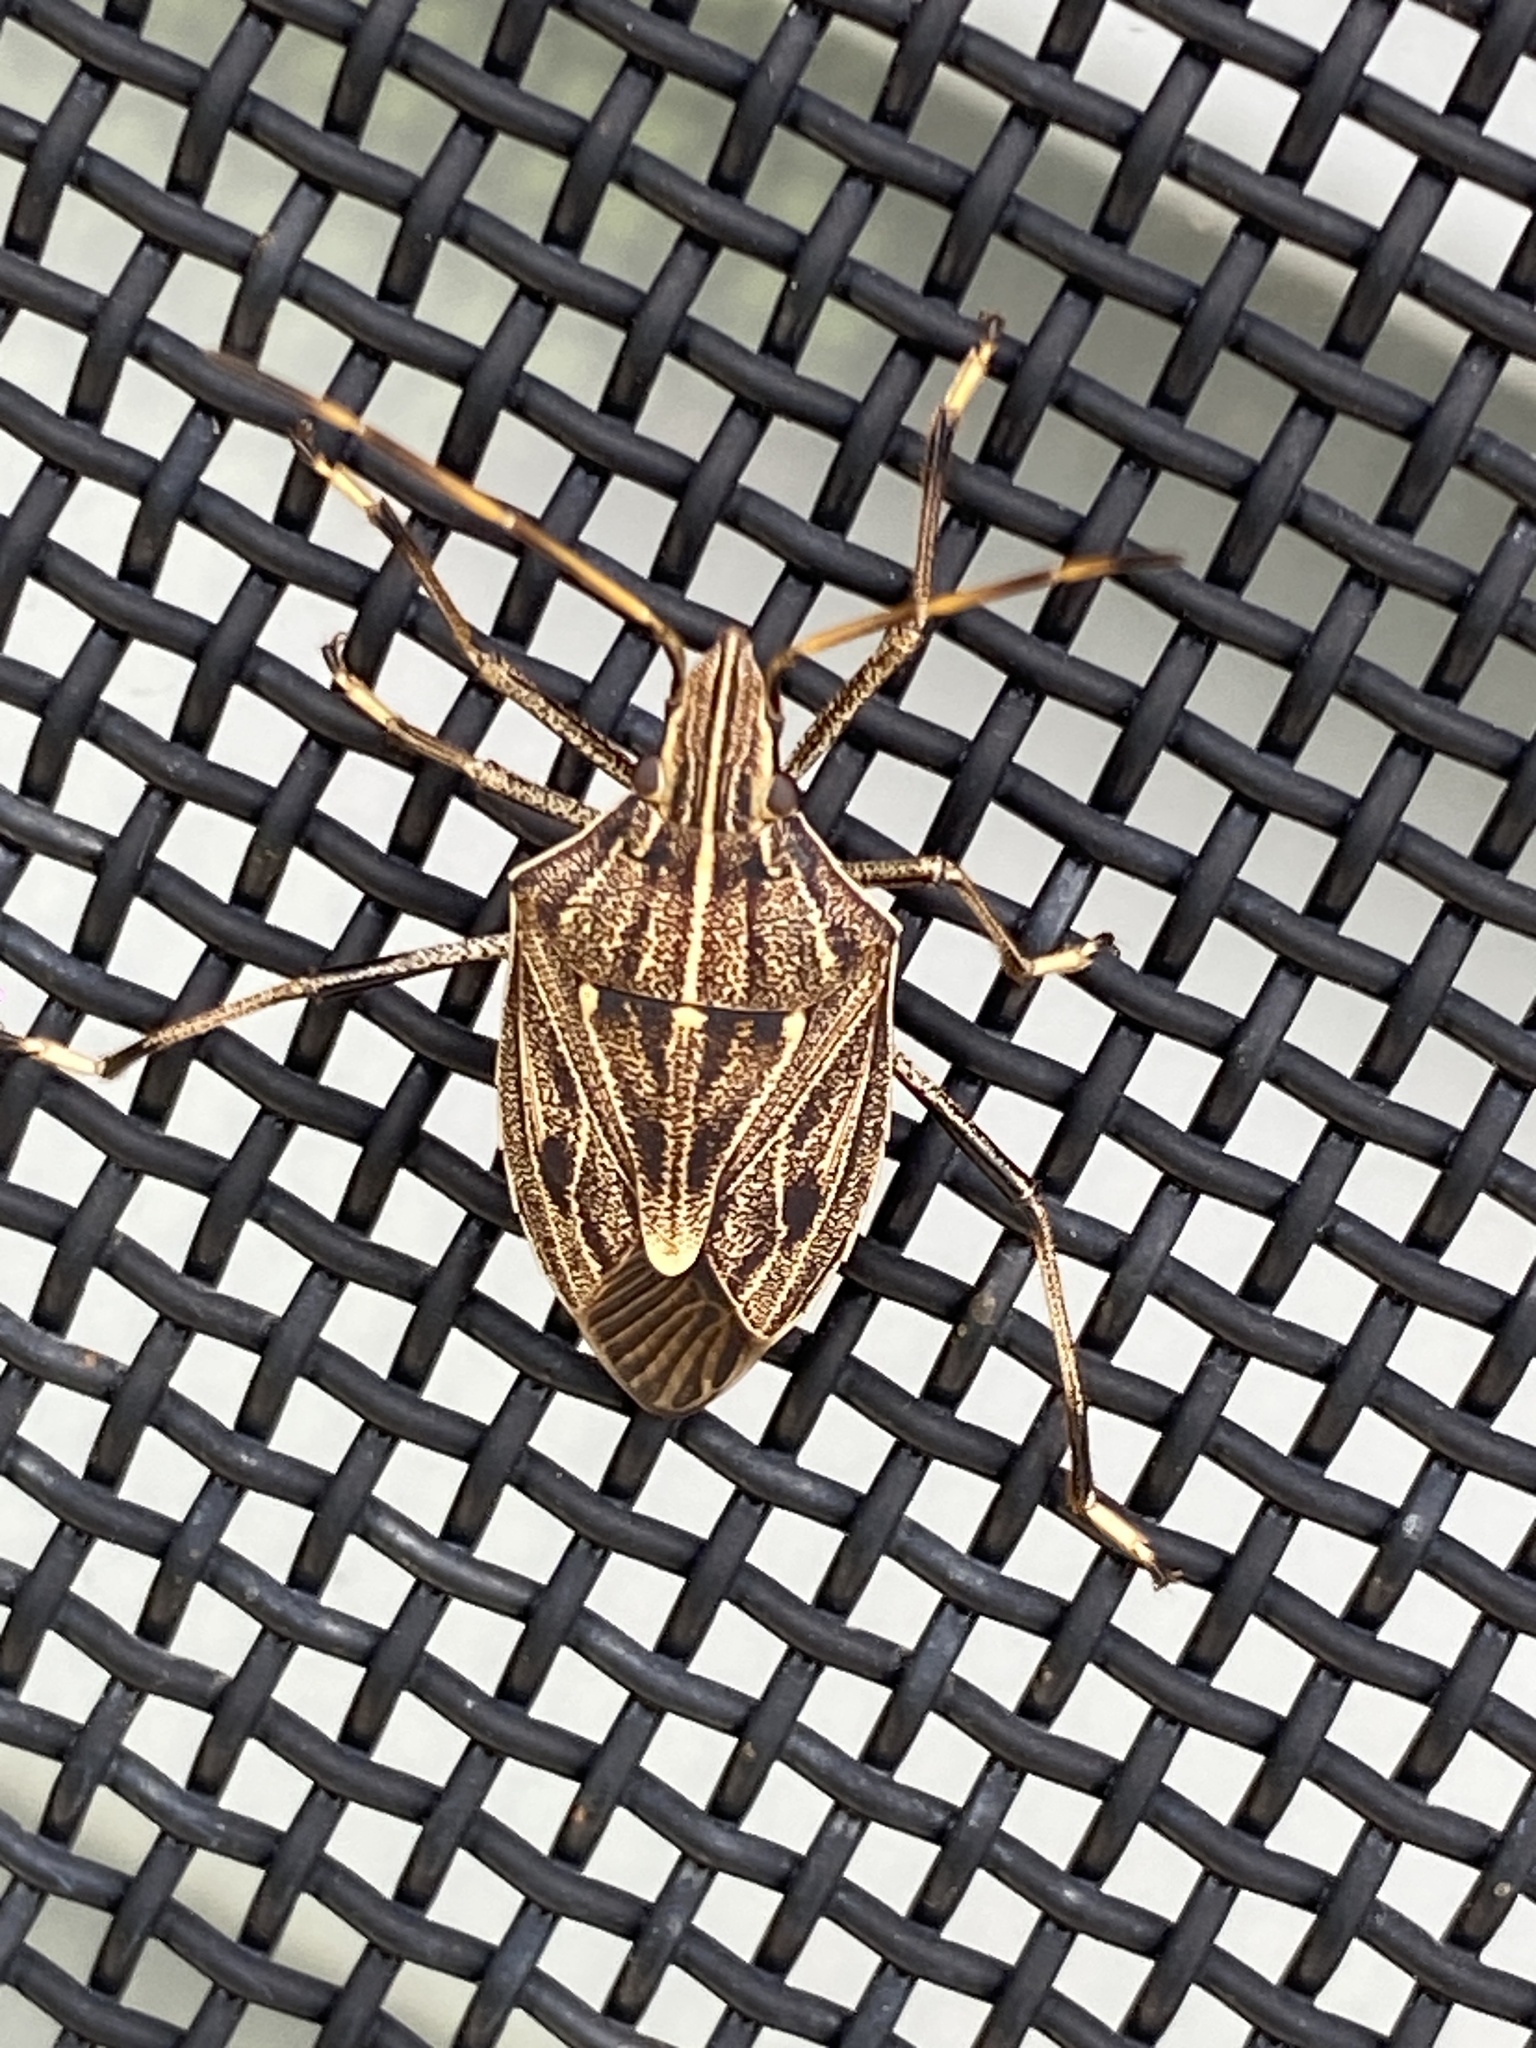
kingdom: Animalia
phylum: Arthropoda
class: Insecta
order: Hemiptera
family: Pentatomidae
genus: Poecilometis
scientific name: Poecilometis
